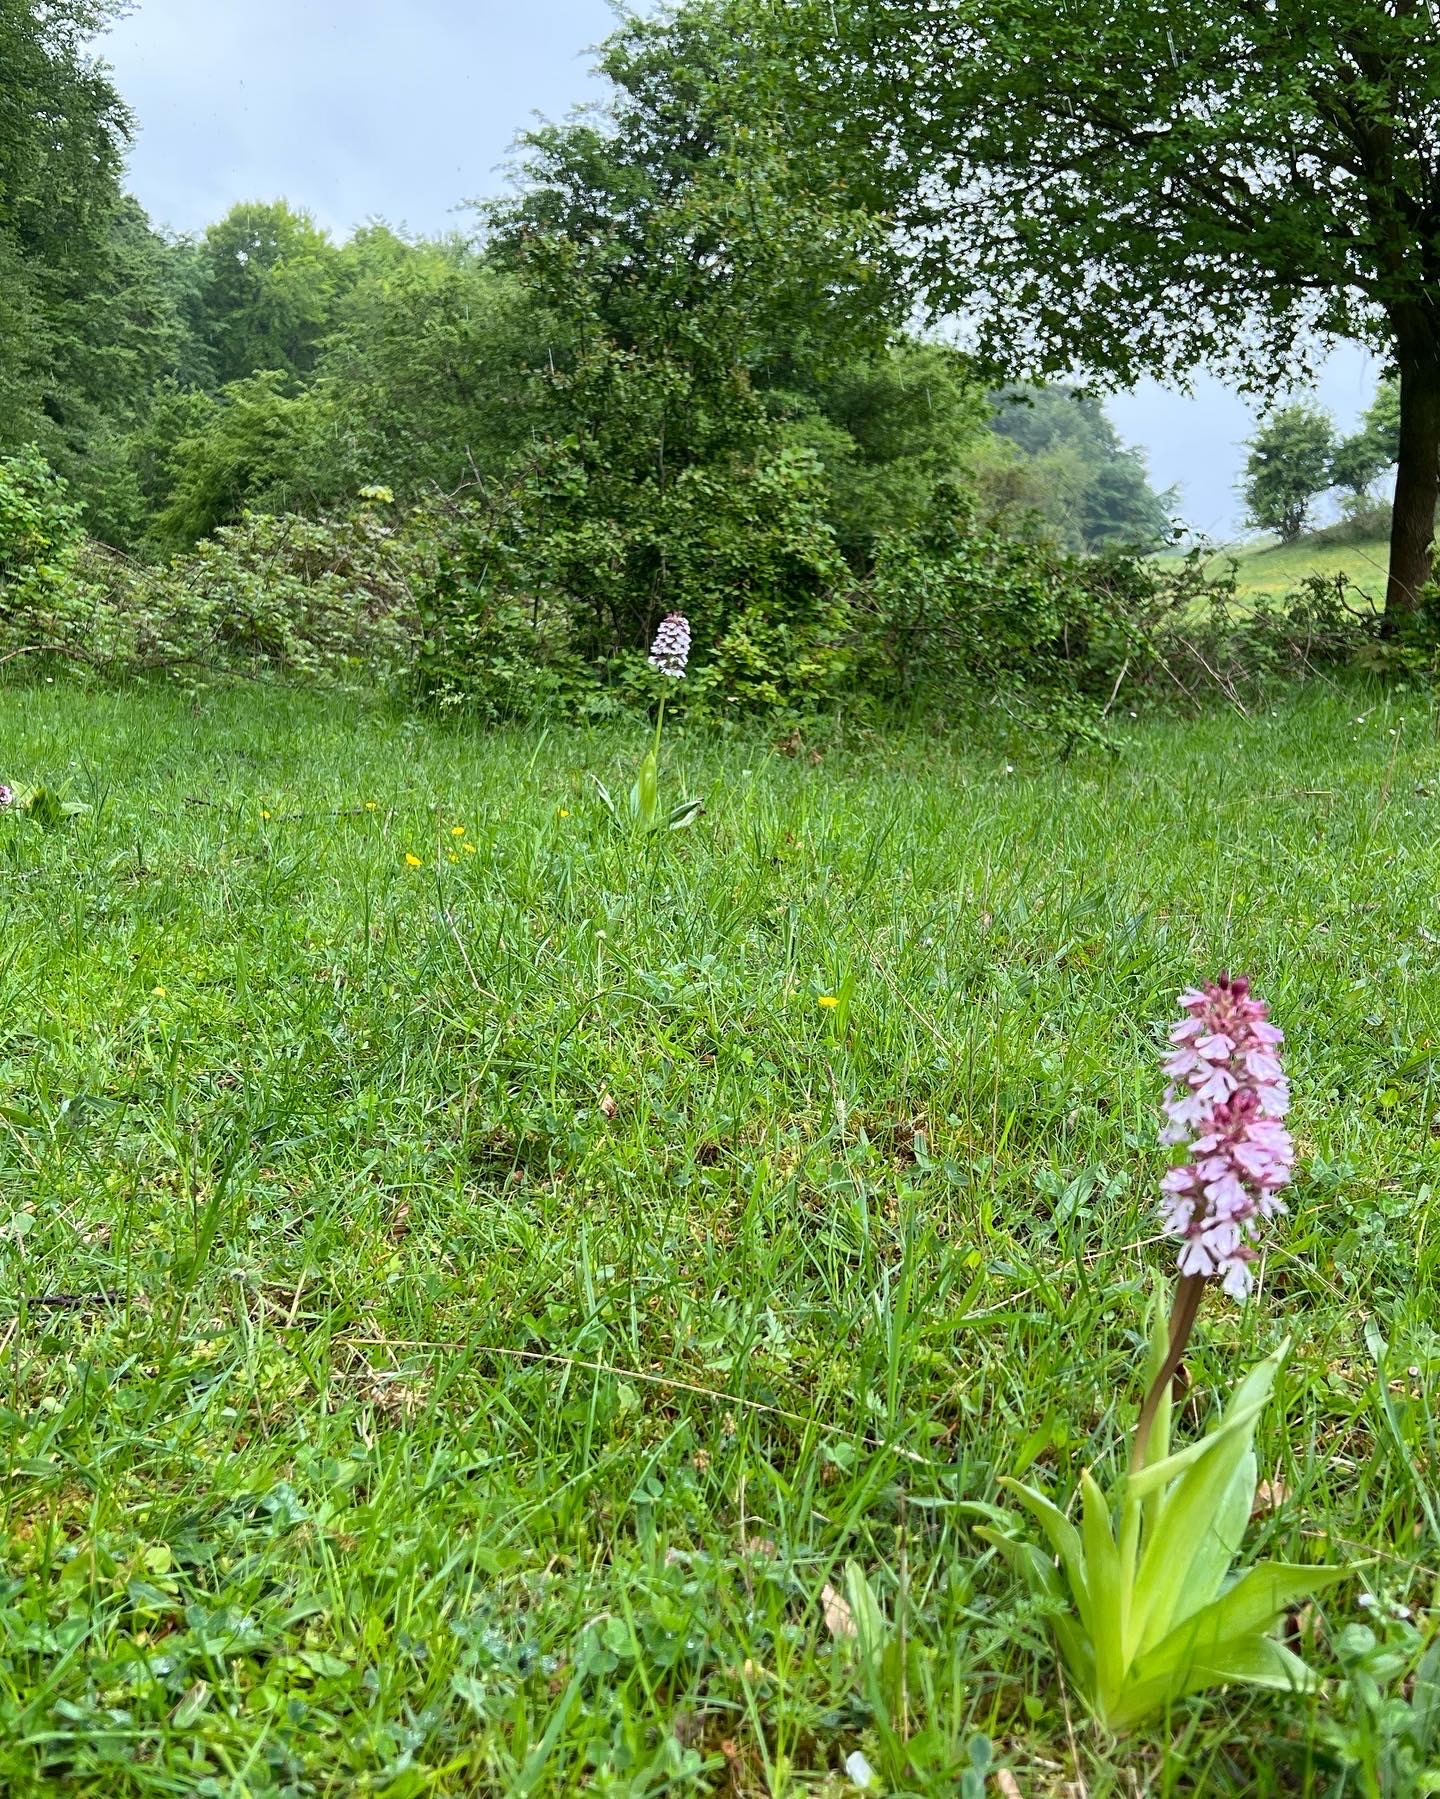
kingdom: Plantae
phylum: Tracheophyta
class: Liliopsida
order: Asparagales
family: Orchidaceae
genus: Orchis
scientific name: Orchis purpurea
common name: Lady orchid
